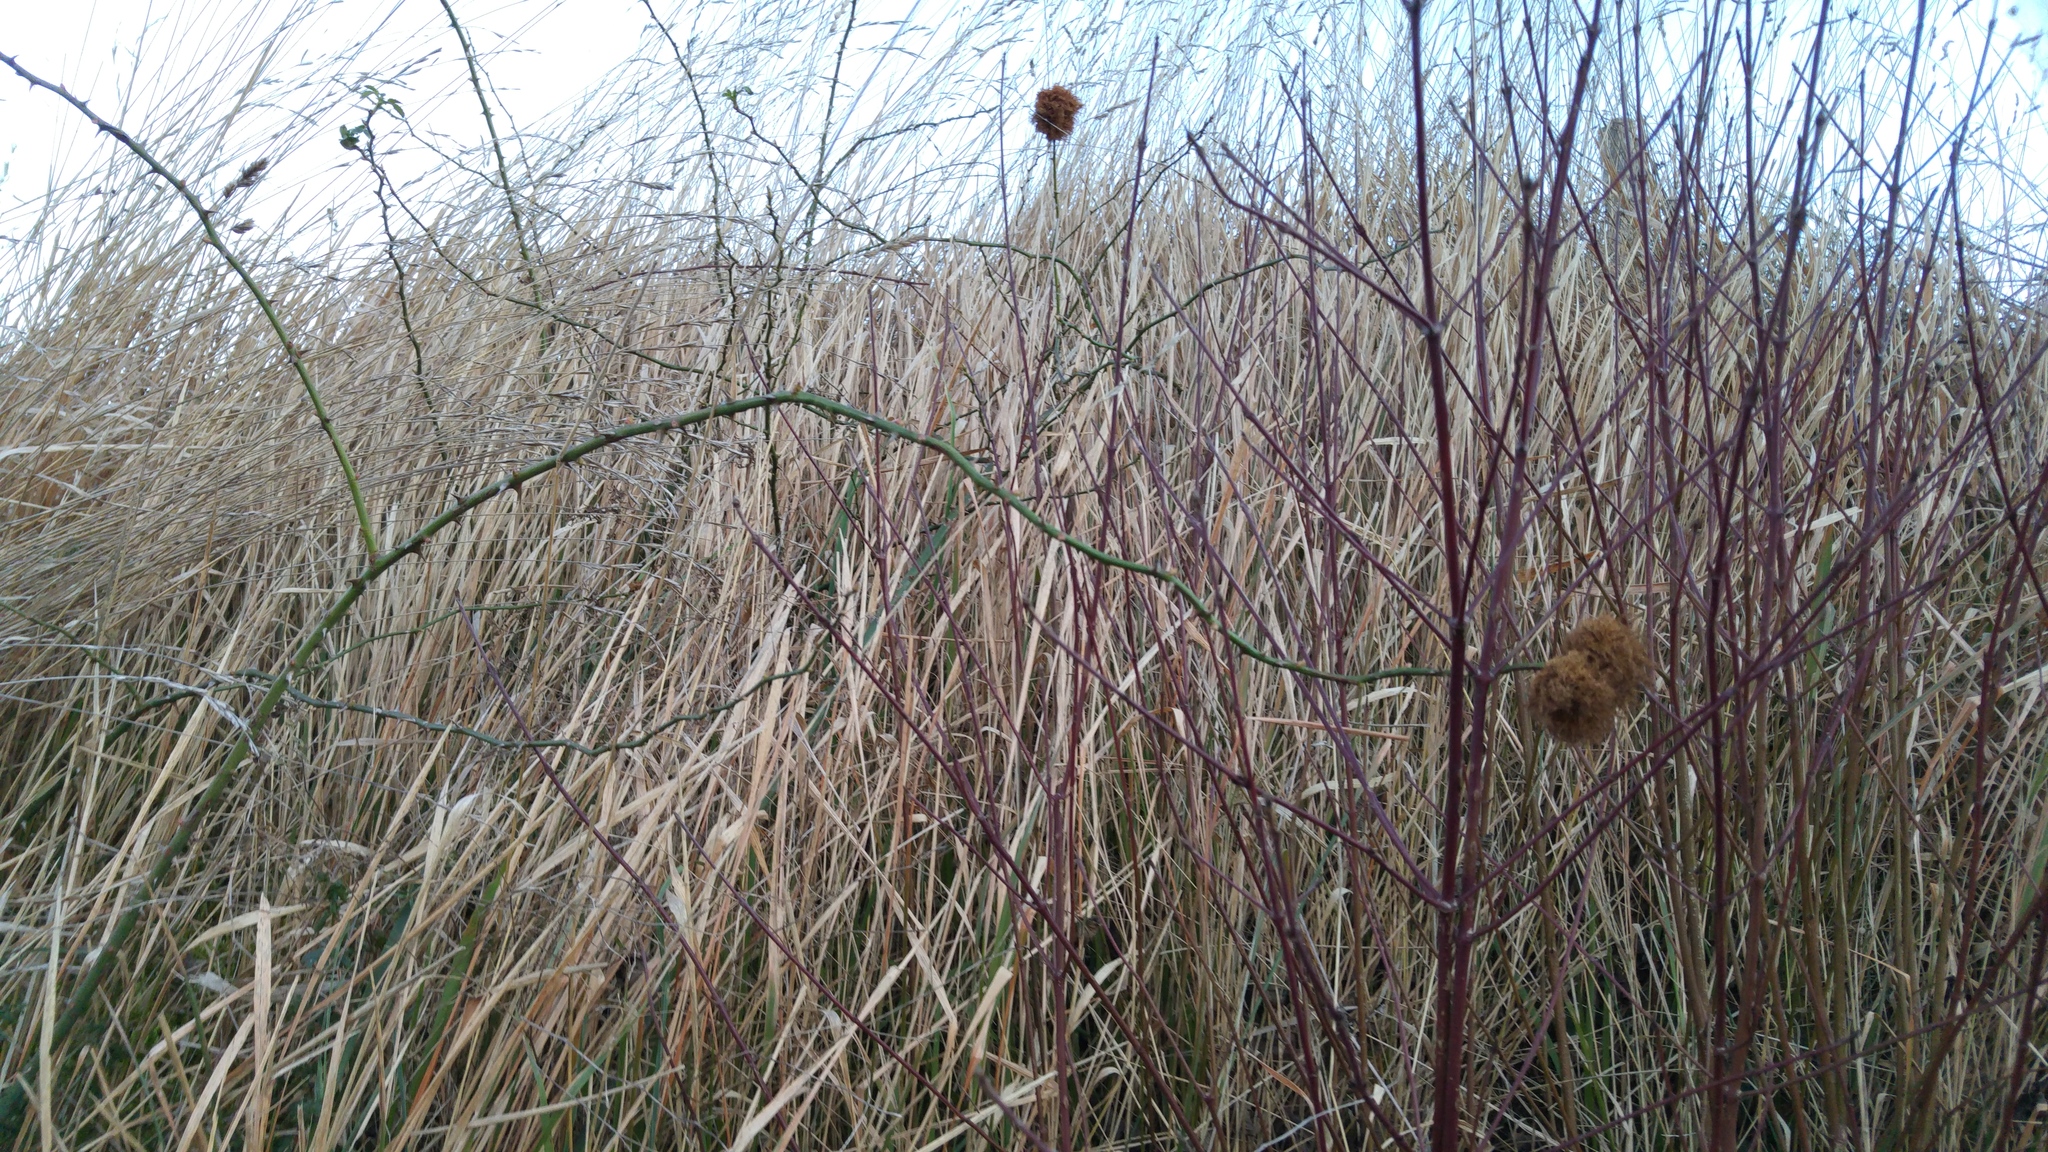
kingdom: Animalia
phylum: Arthropoda
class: Insecta
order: Hymenoptera
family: Cynipidae
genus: Diplolepis
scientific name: Diplolepis rosae
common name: Bedeguar gall
